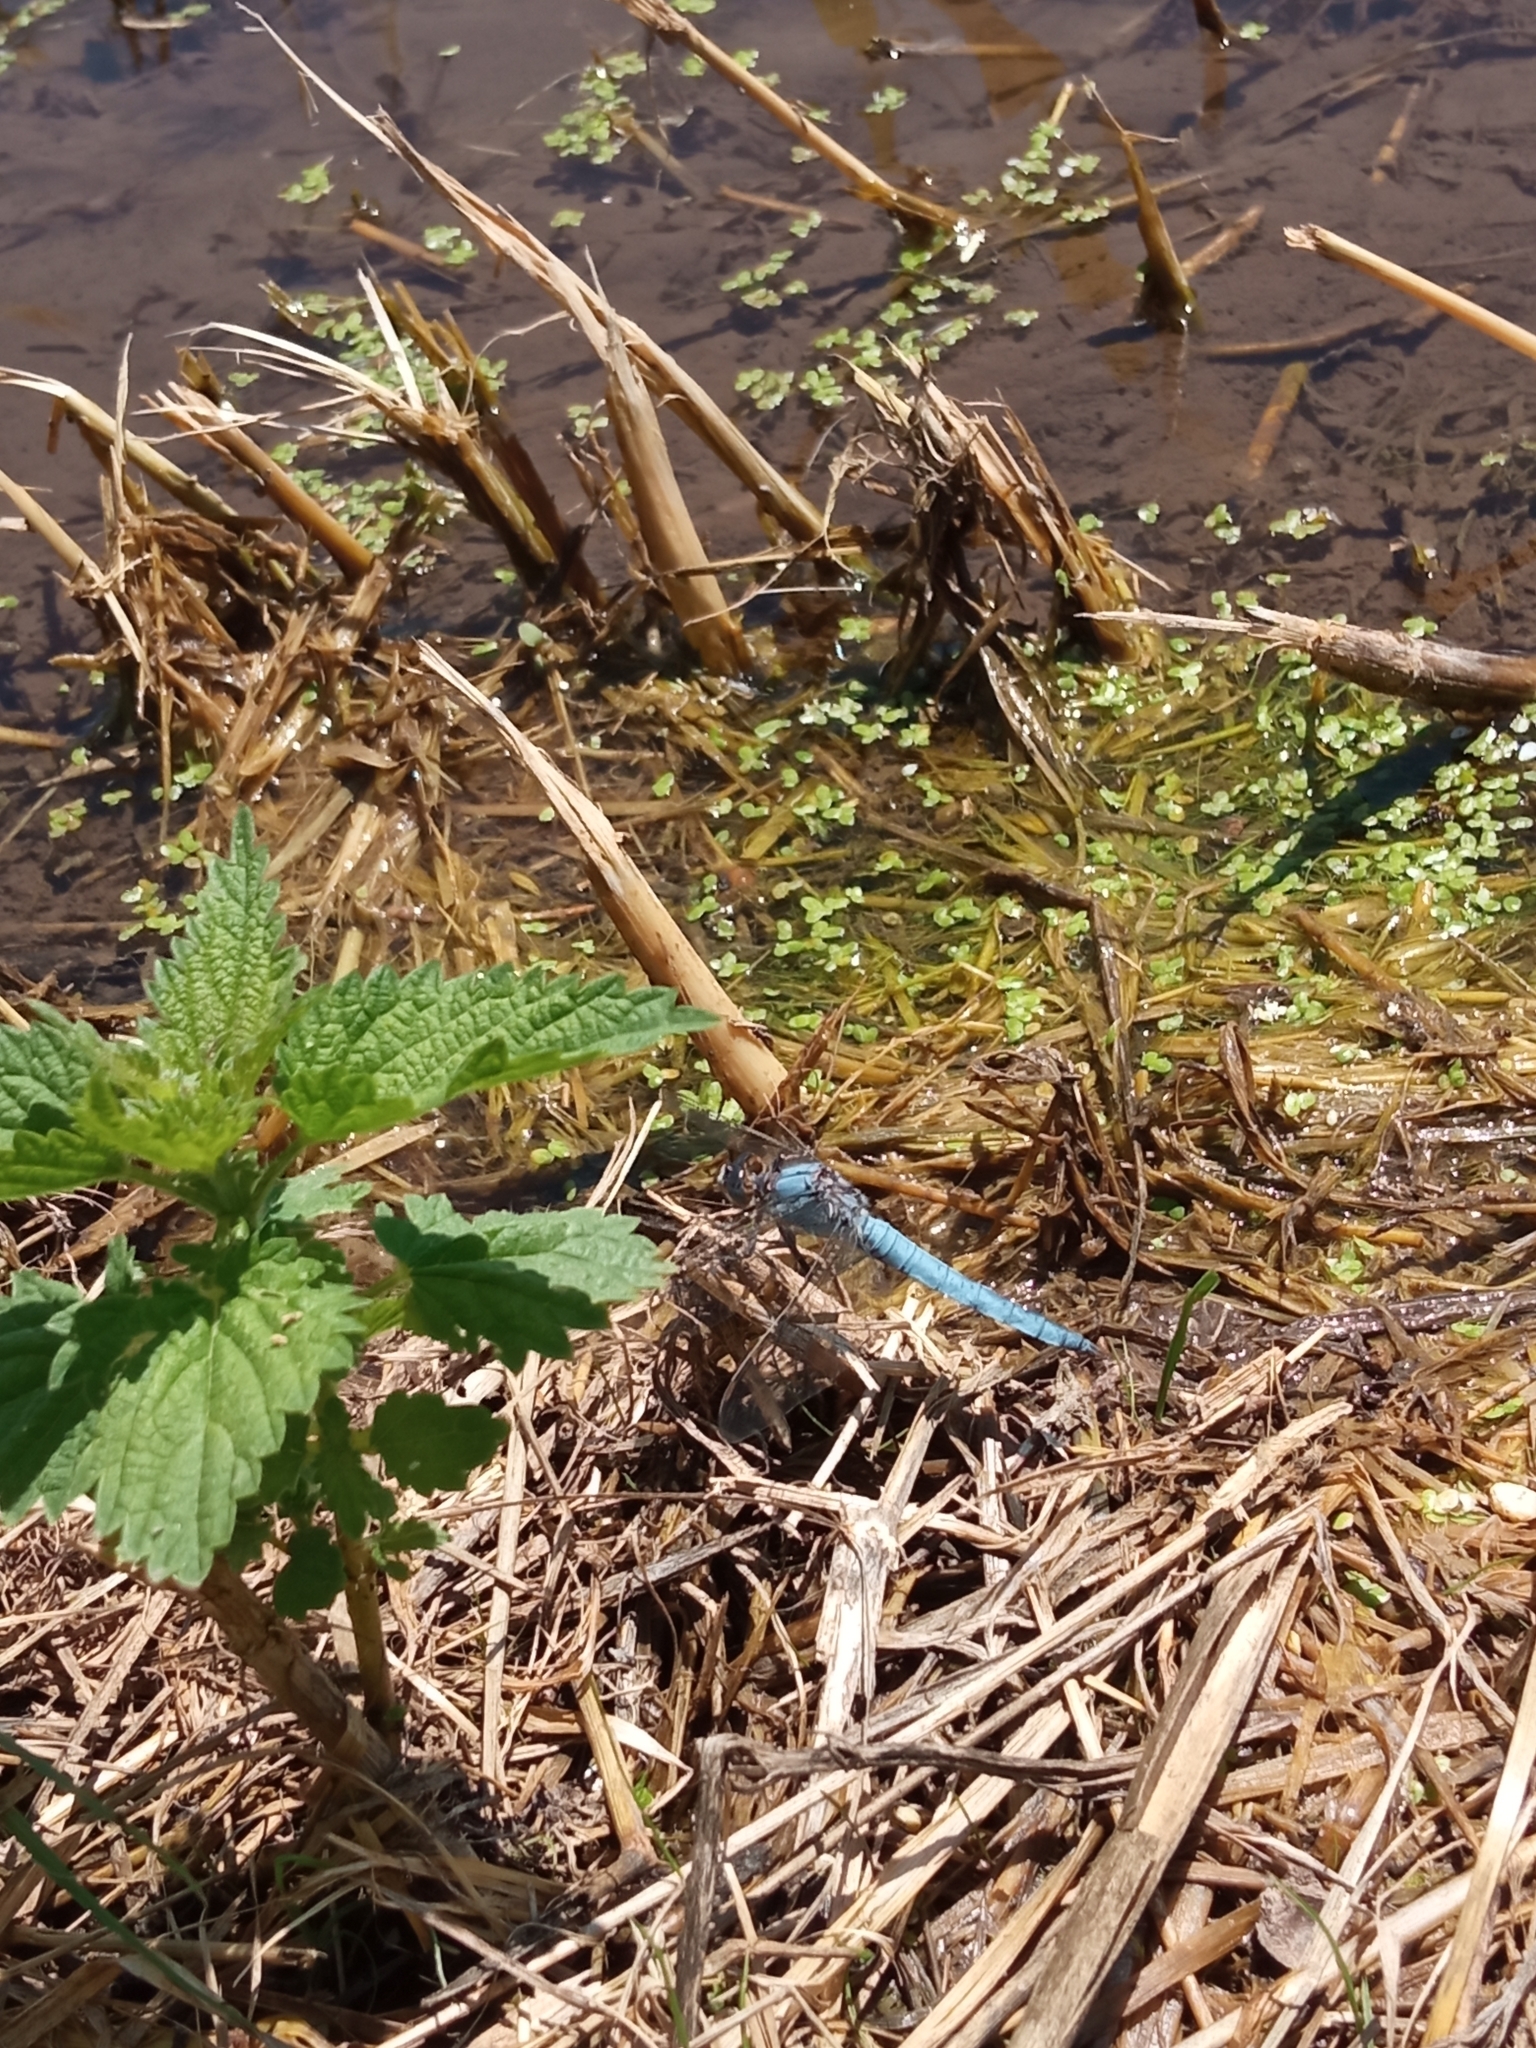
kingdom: Animalia
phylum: Arthropoda
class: Insecta
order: Odonata
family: Libellulidae
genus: Orthetrum
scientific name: Orthetrum brunneum
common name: Southern skimmer
